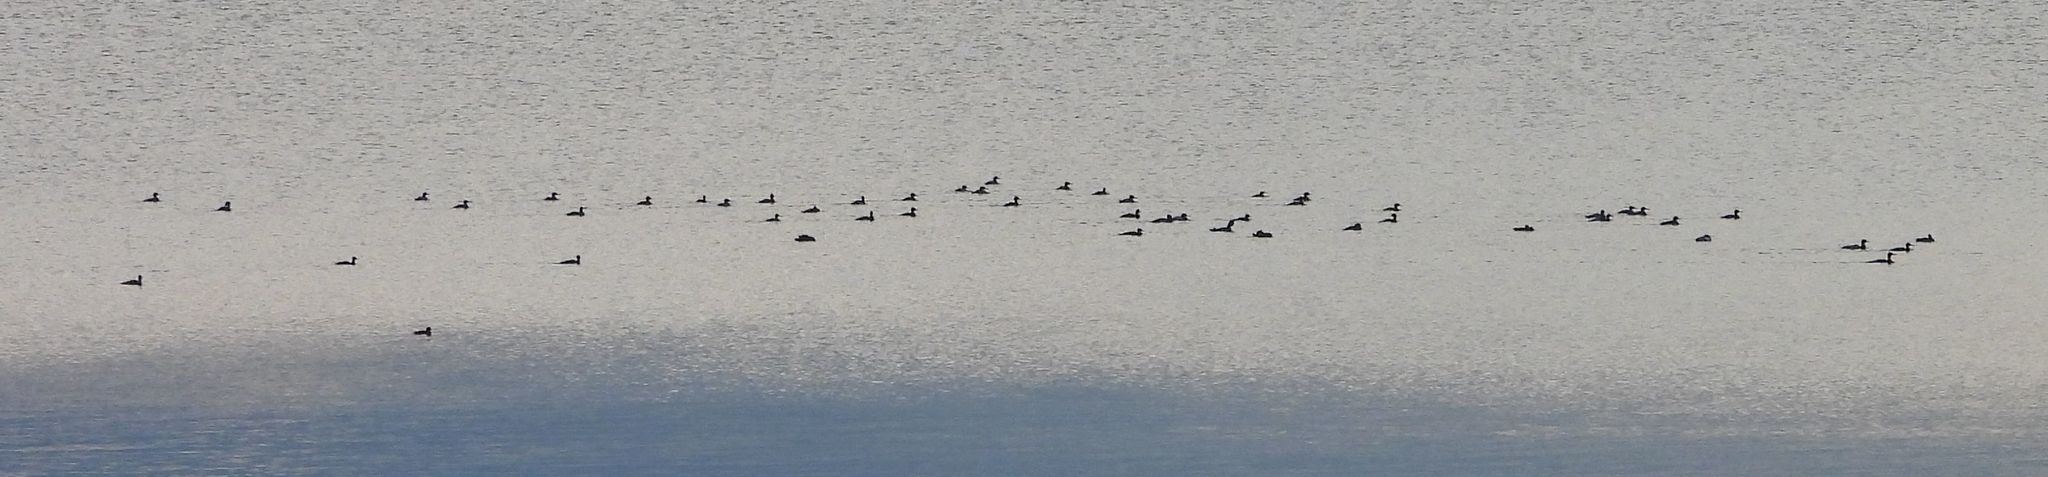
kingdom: Animalia
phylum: Chordata
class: Aves
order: Anseriformes
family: Anatidae
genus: Mergus
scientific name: Mergus serrator
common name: Red-breasted merganser
